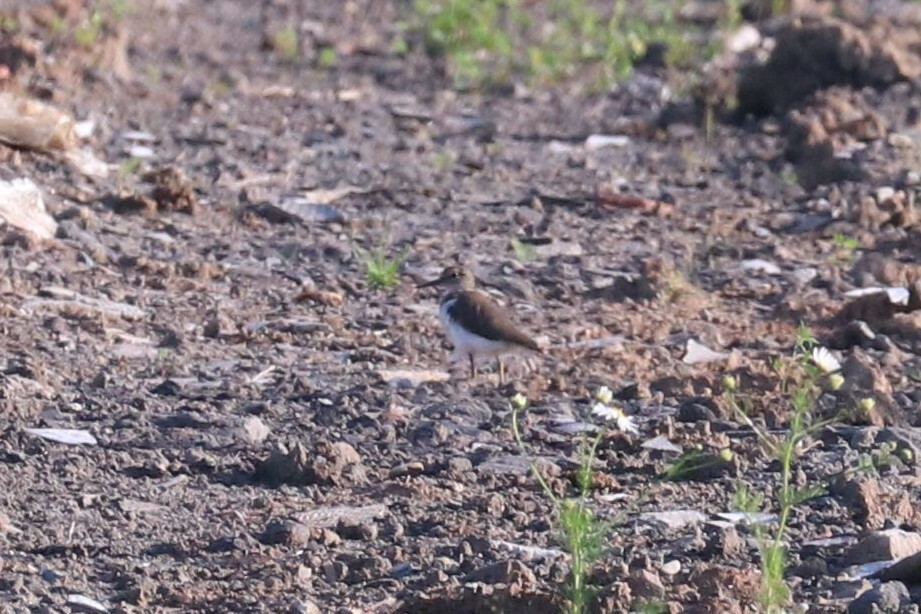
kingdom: Animalia
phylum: Chordata
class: Aves
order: Charadriiformes
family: Scolopacidae
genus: Actitis
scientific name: Actitis hypoleucos
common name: Common sandpiper
